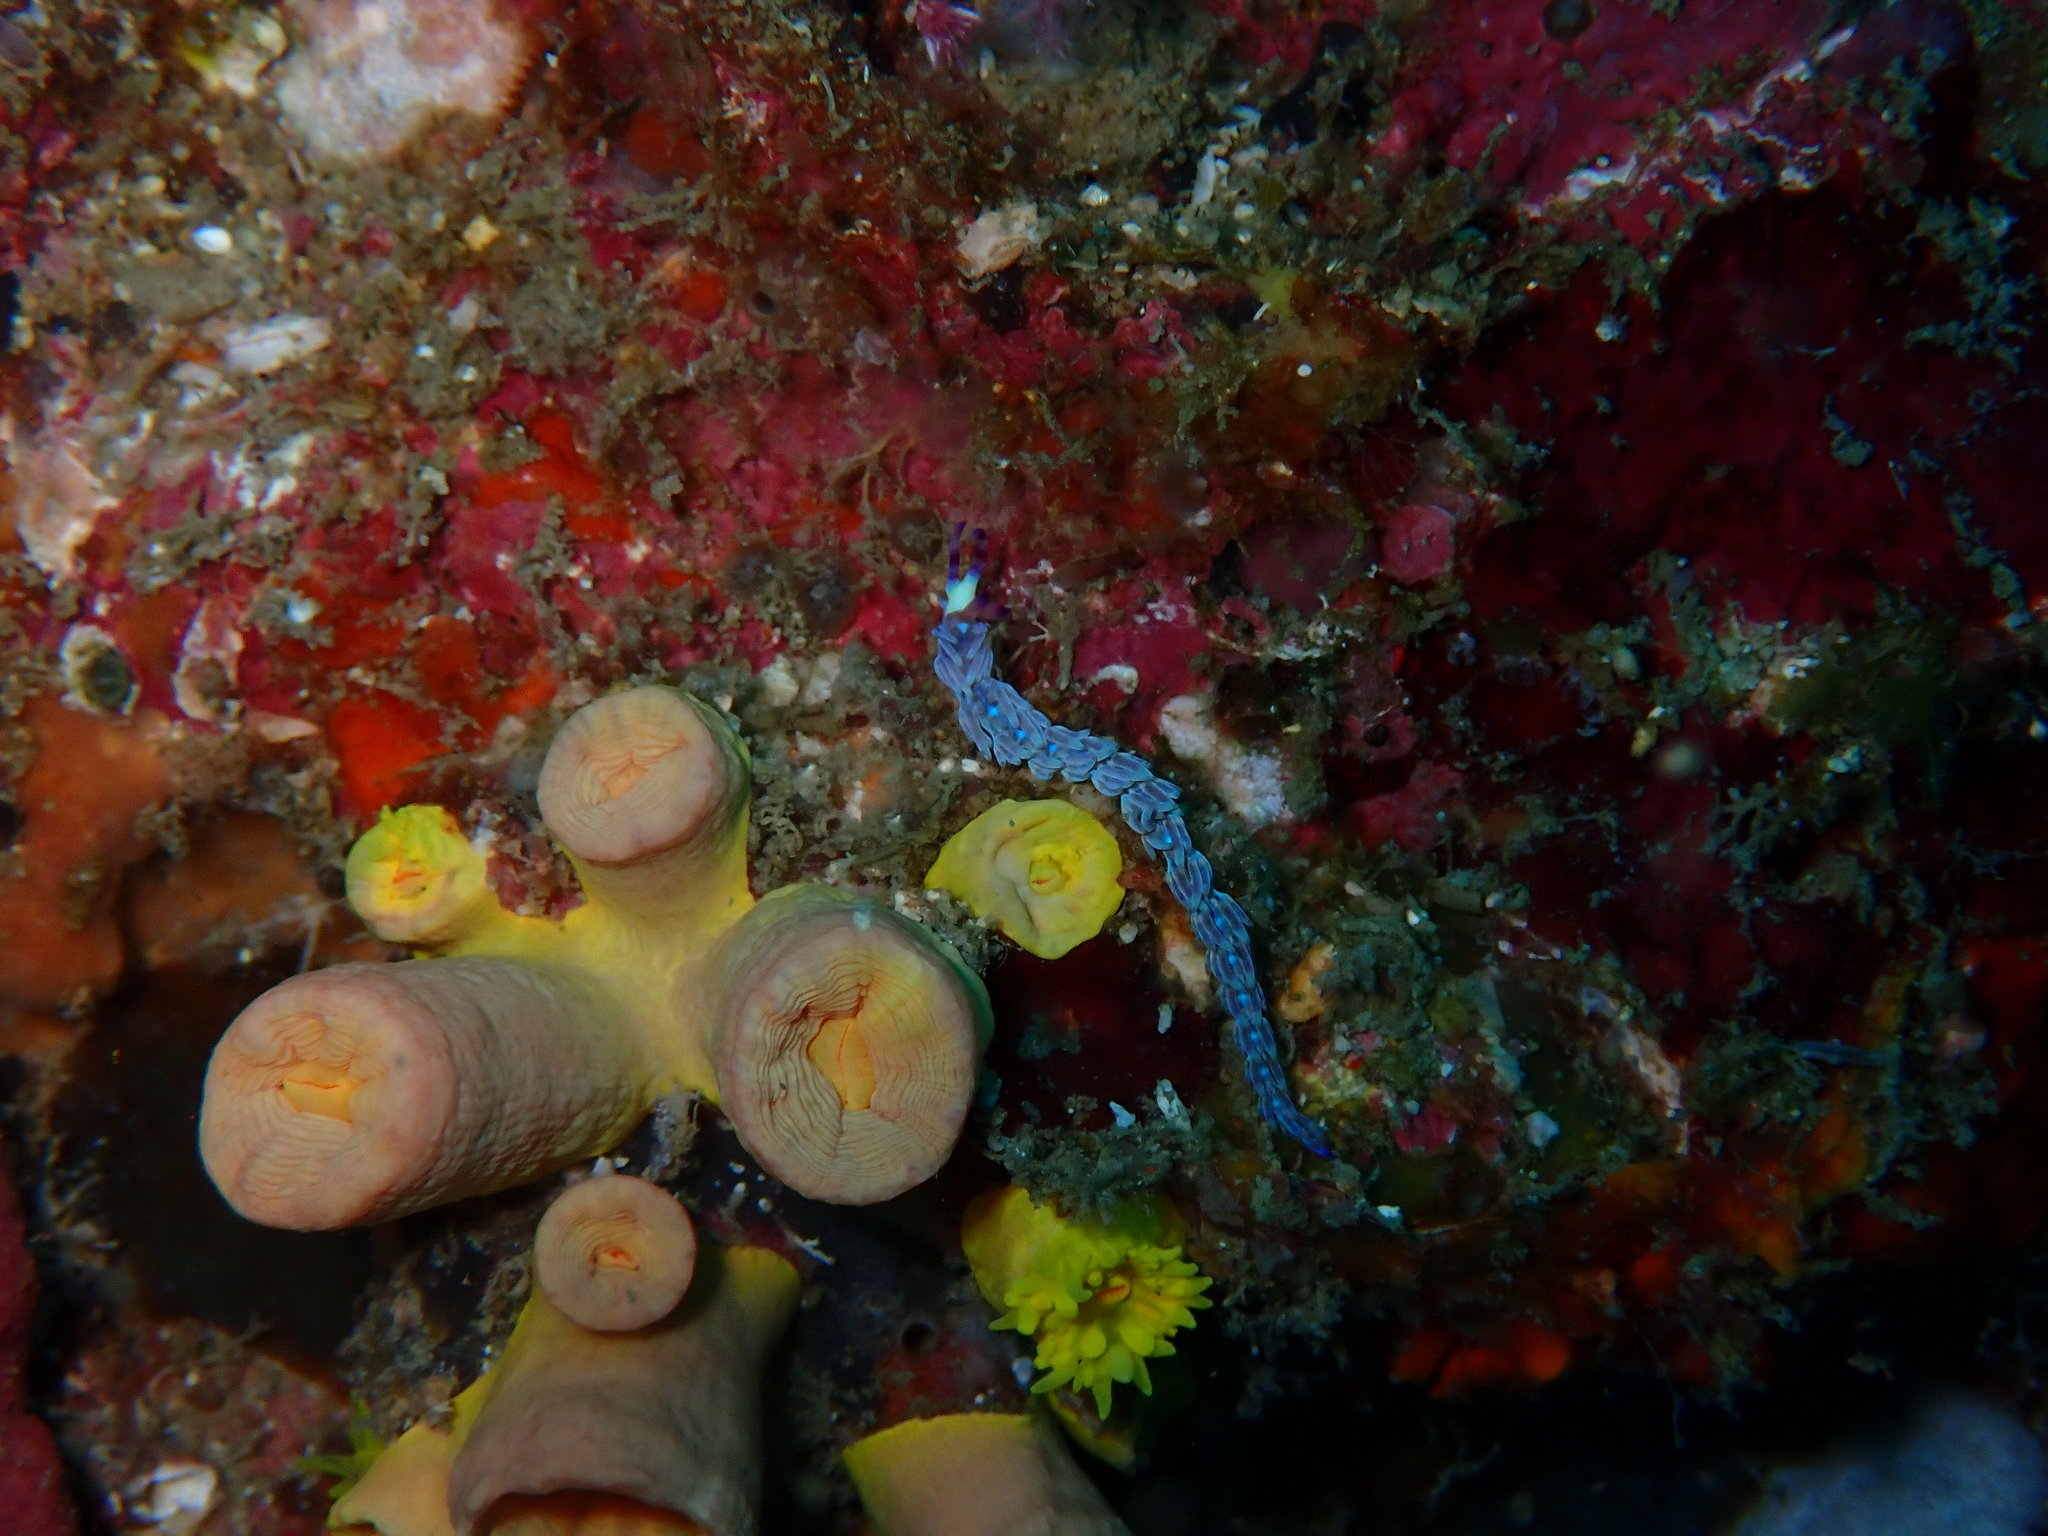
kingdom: Animalia
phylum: Cnidaria
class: Anthozoa
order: Scleractinia
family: Dendrophylliidae
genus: Tubastraea
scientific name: Tubastraea tagusensis
